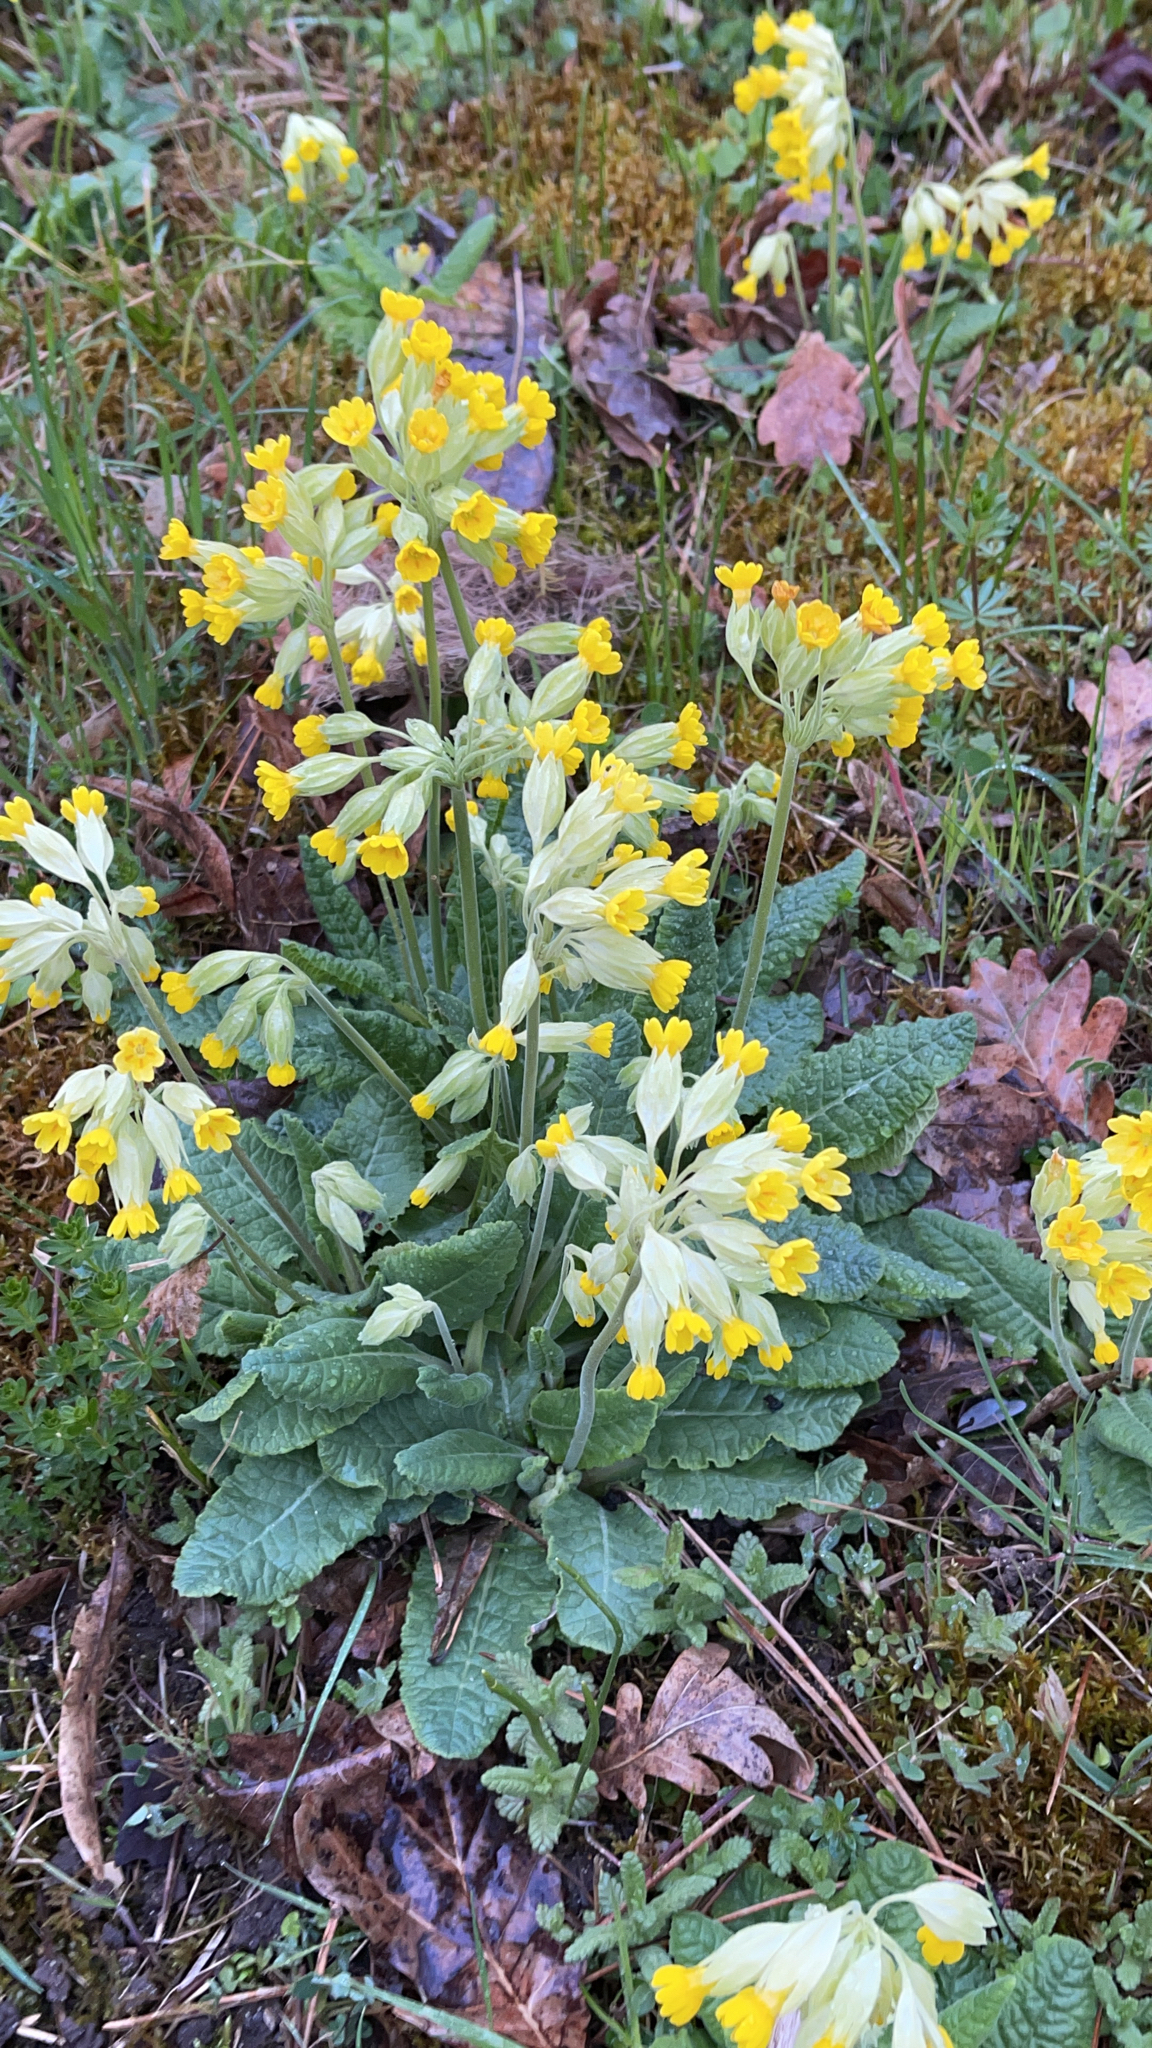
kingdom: Plantae
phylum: Tracheophyta
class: Magnoliopsida
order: Ericales
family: Primulaceae
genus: Primula
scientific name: Primula veris
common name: Cowslip
